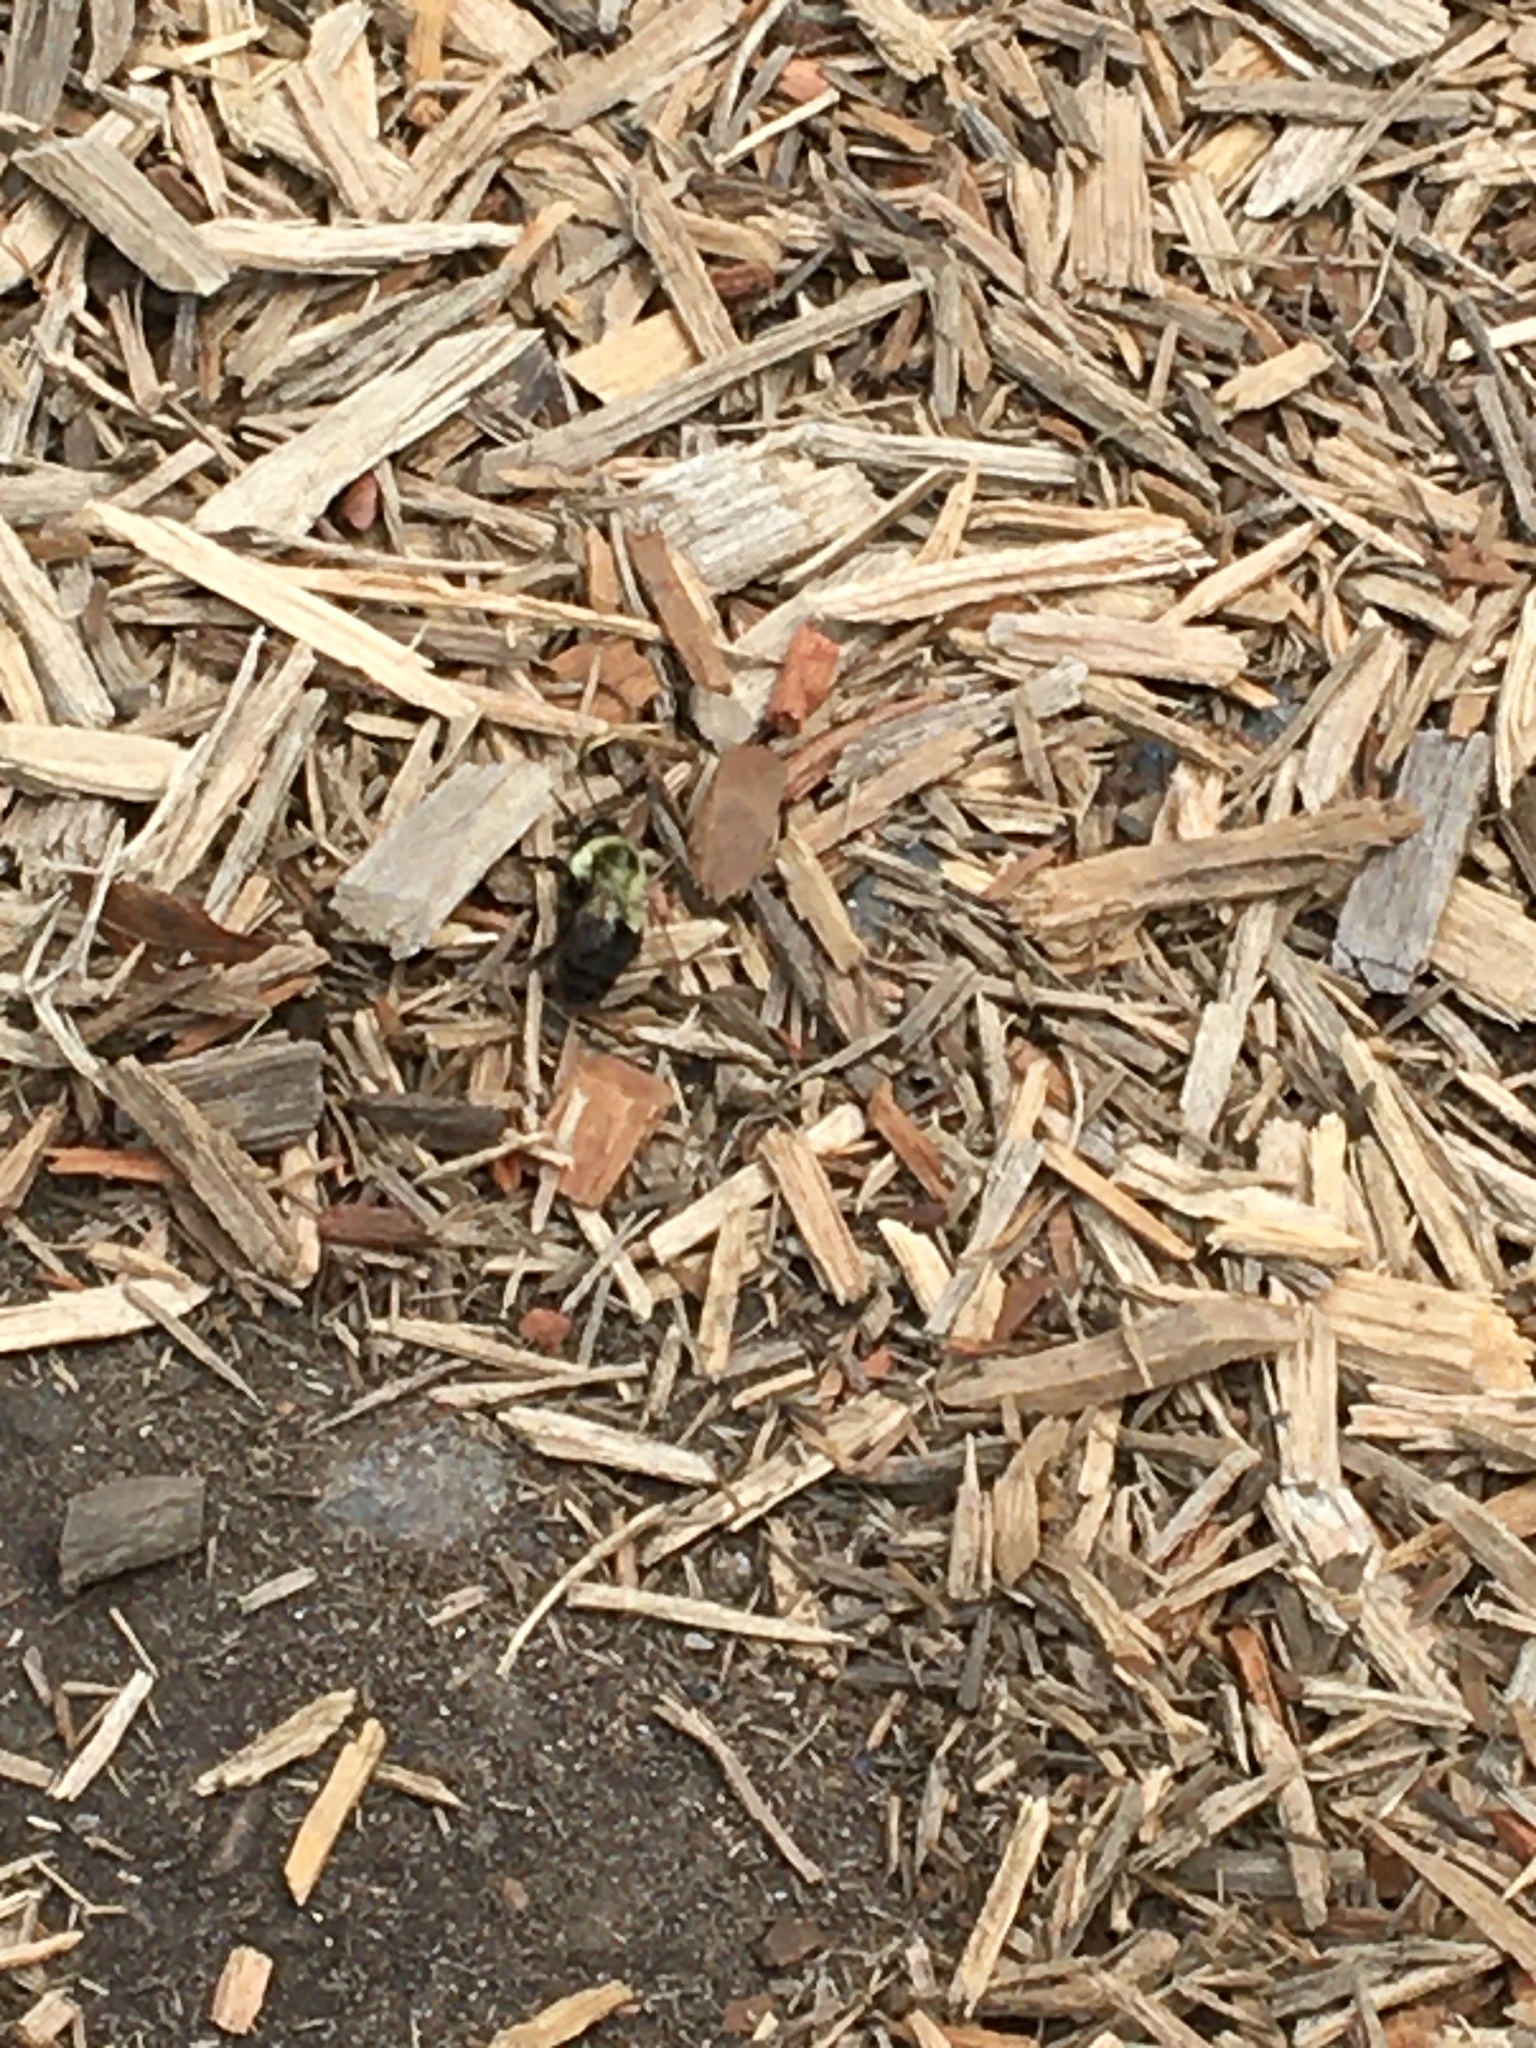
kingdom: Animalia
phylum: Arthropoda
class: Insecta
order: Hymenoptera
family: Apidae
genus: Bombus
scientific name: Bombus impatiens
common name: Common eastern bumble bee
